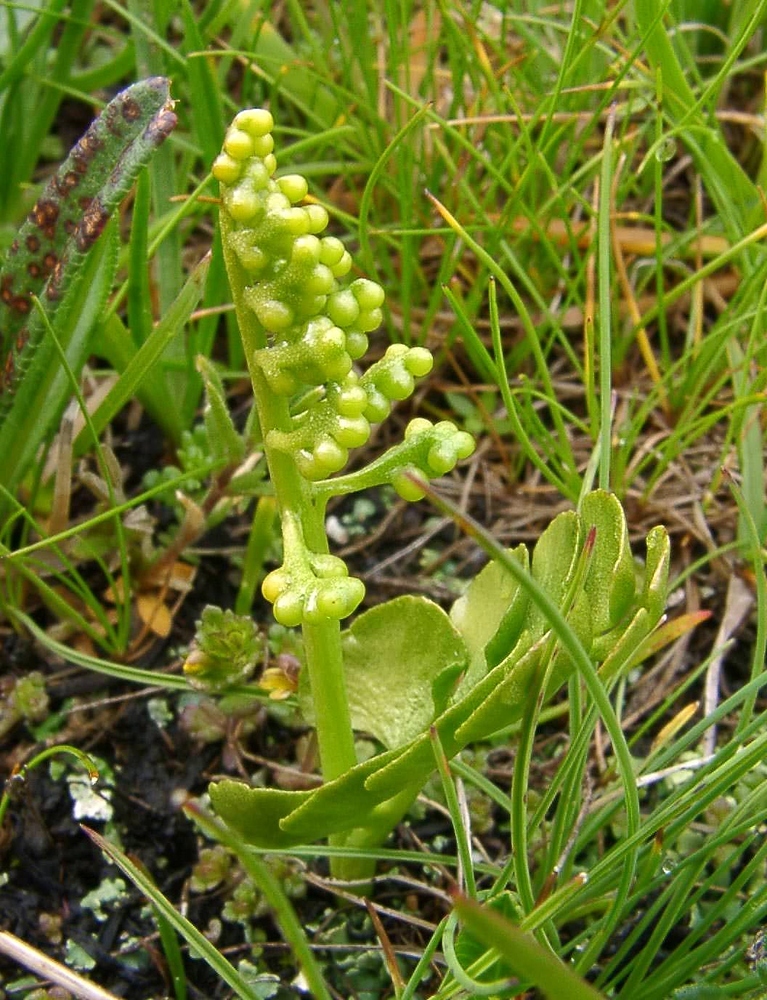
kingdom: Plantae
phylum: Tracheophyta
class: Polypodiopsida
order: Ophioglossales
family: Ophioglossaceae
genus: Botrychium
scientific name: Botrychium lunaria
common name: Moonwort
